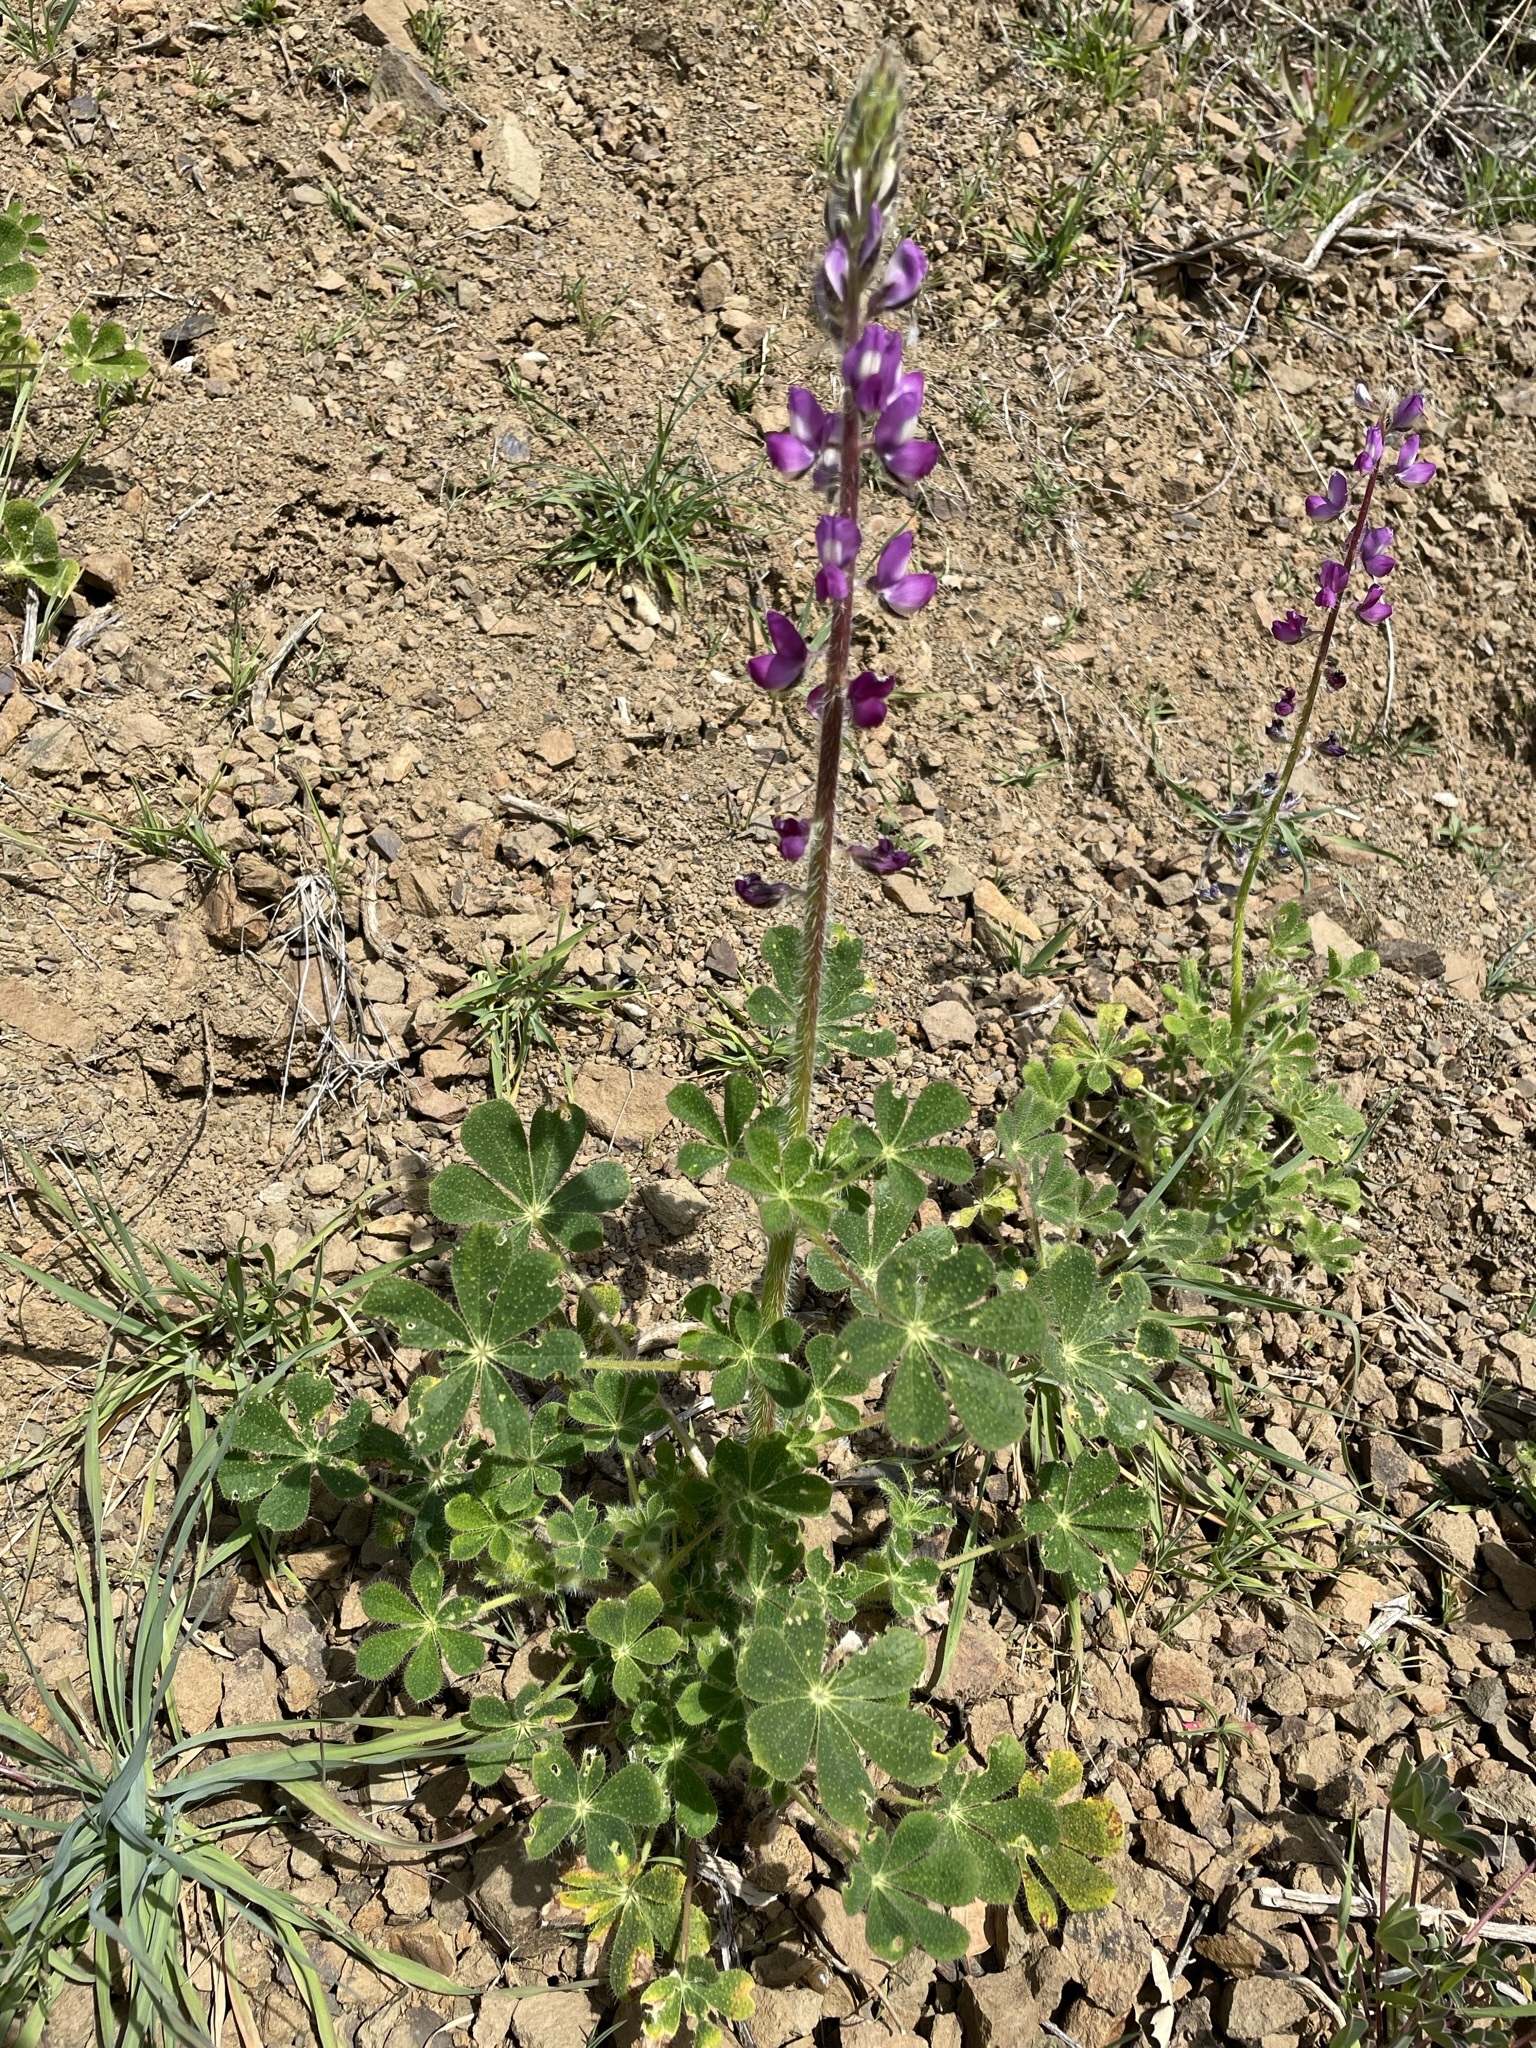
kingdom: Plantae
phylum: Tracheophyta
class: Magnoliopsida
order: Fabales
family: Fabaceae
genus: Lupinus
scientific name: Lupinus hirsutissimus
